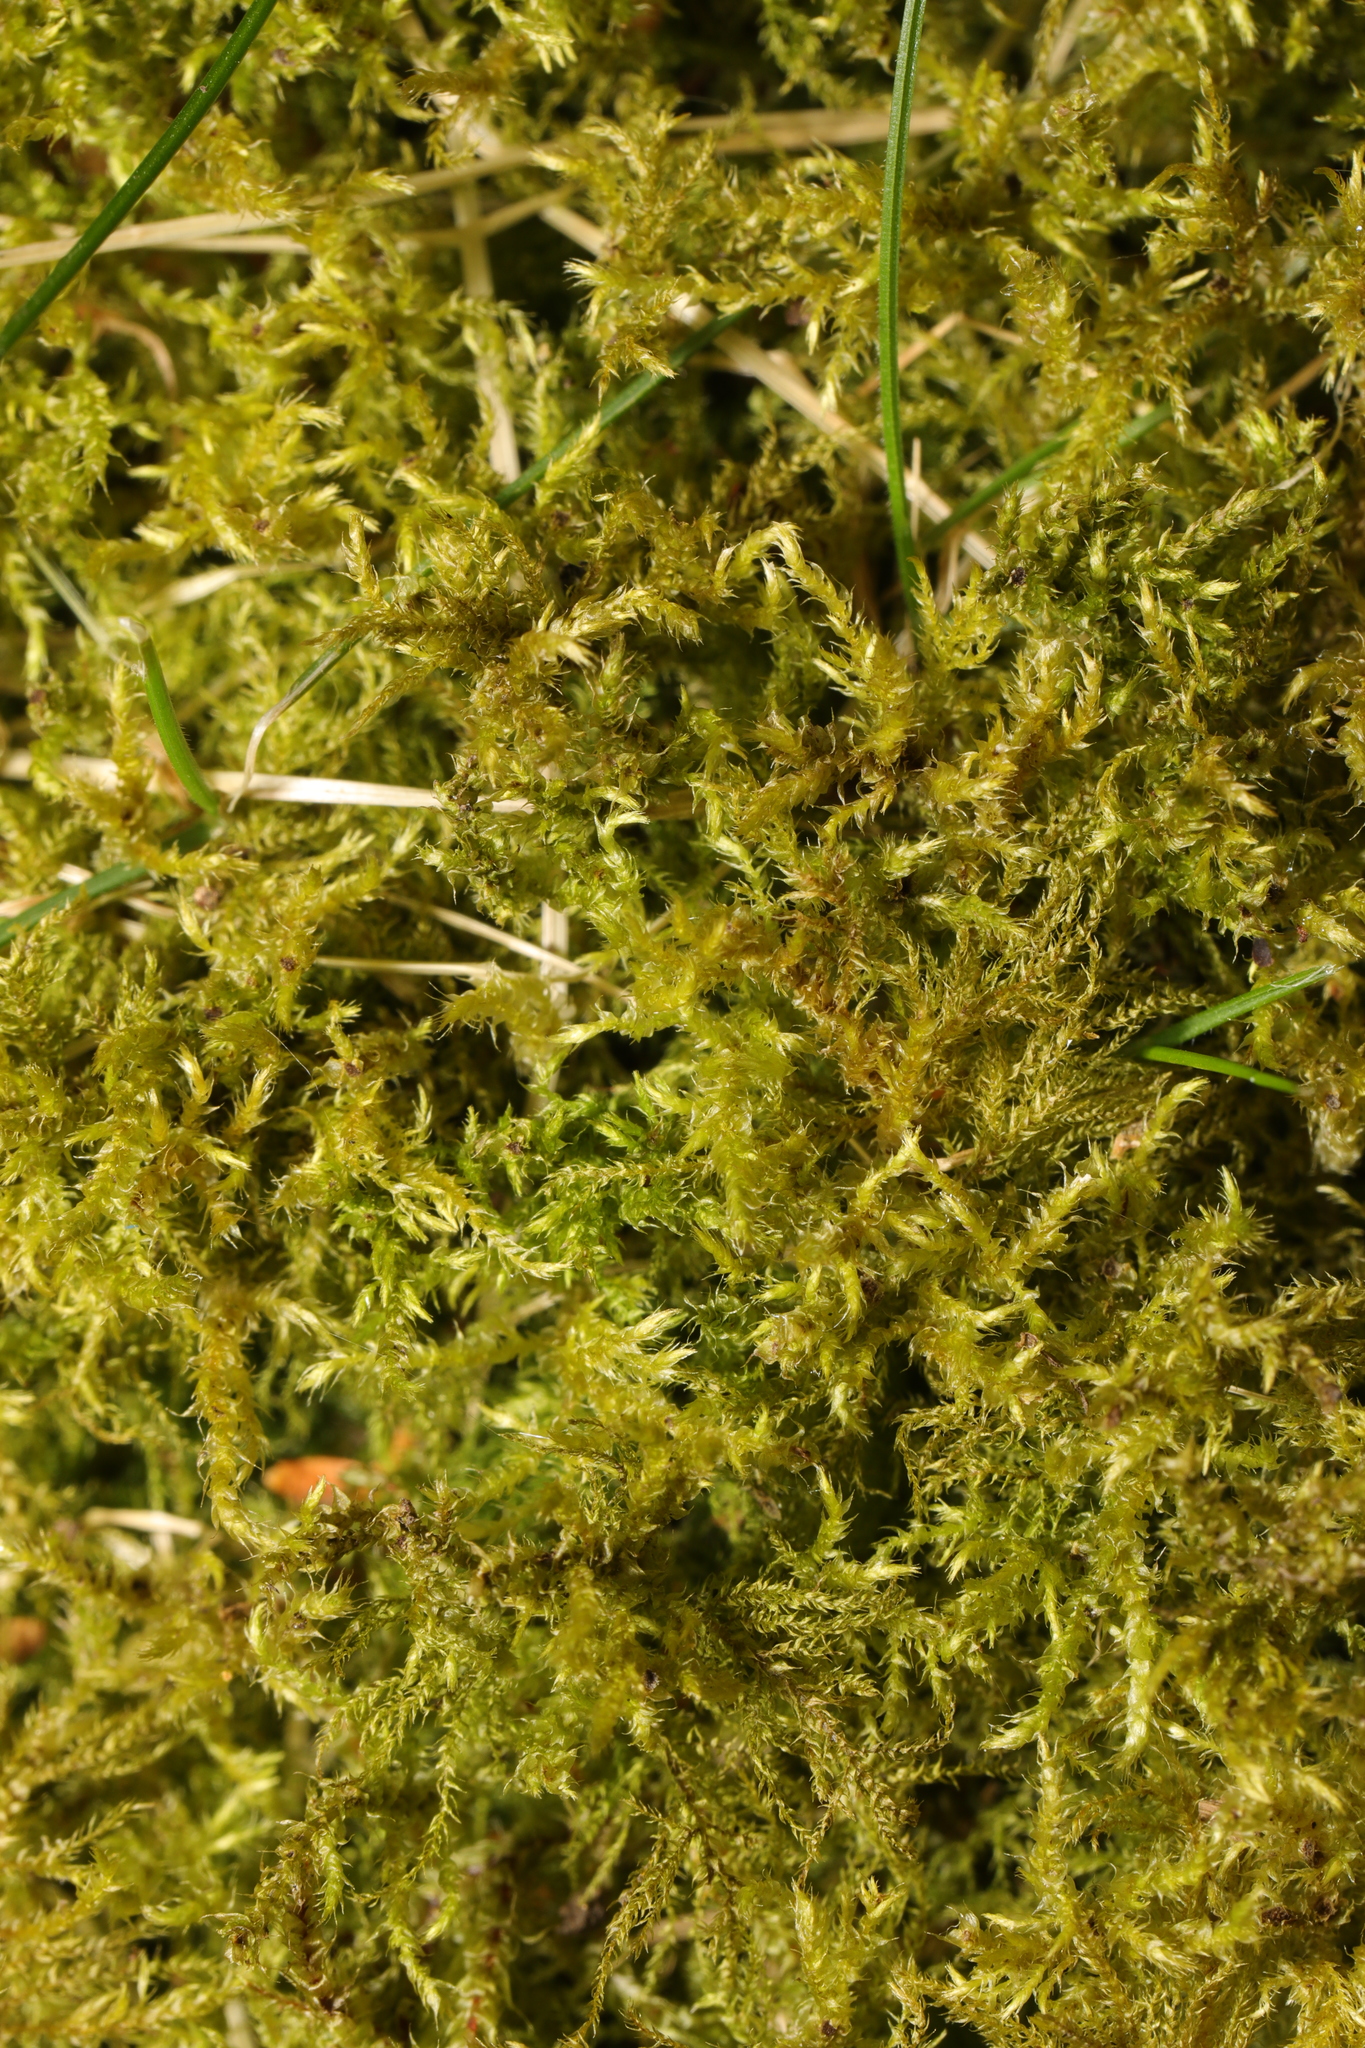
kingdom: Plantae
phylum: Bryophyta
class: Bryopsida
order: Hypnales
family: Pylaisiaceae
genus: Calliergonella
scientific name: Calliergonella cuspidata
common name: Common large wetland moss
